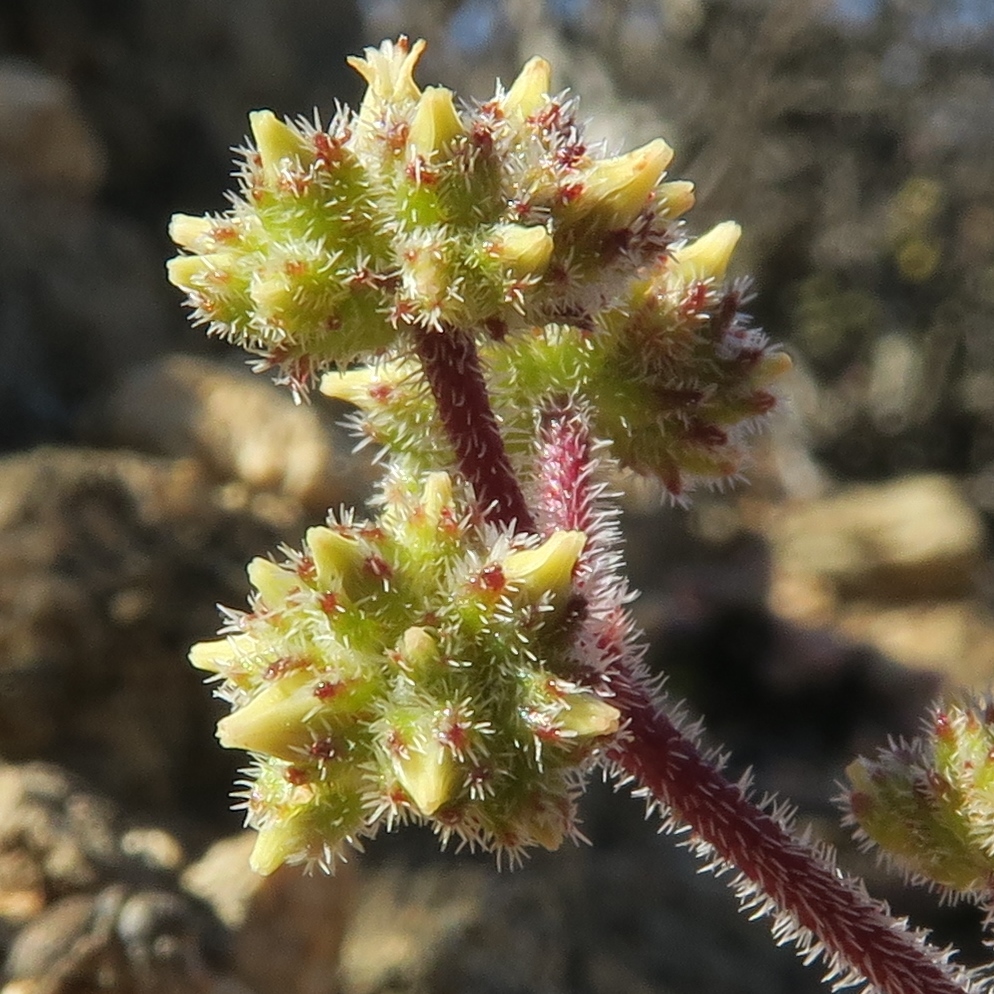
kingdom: Plantae
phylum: Tracheophyta
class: Magnoliopsida
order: Saxifragales
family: Crassulaceae
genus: Crassula
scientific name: Crassula hirtipes
